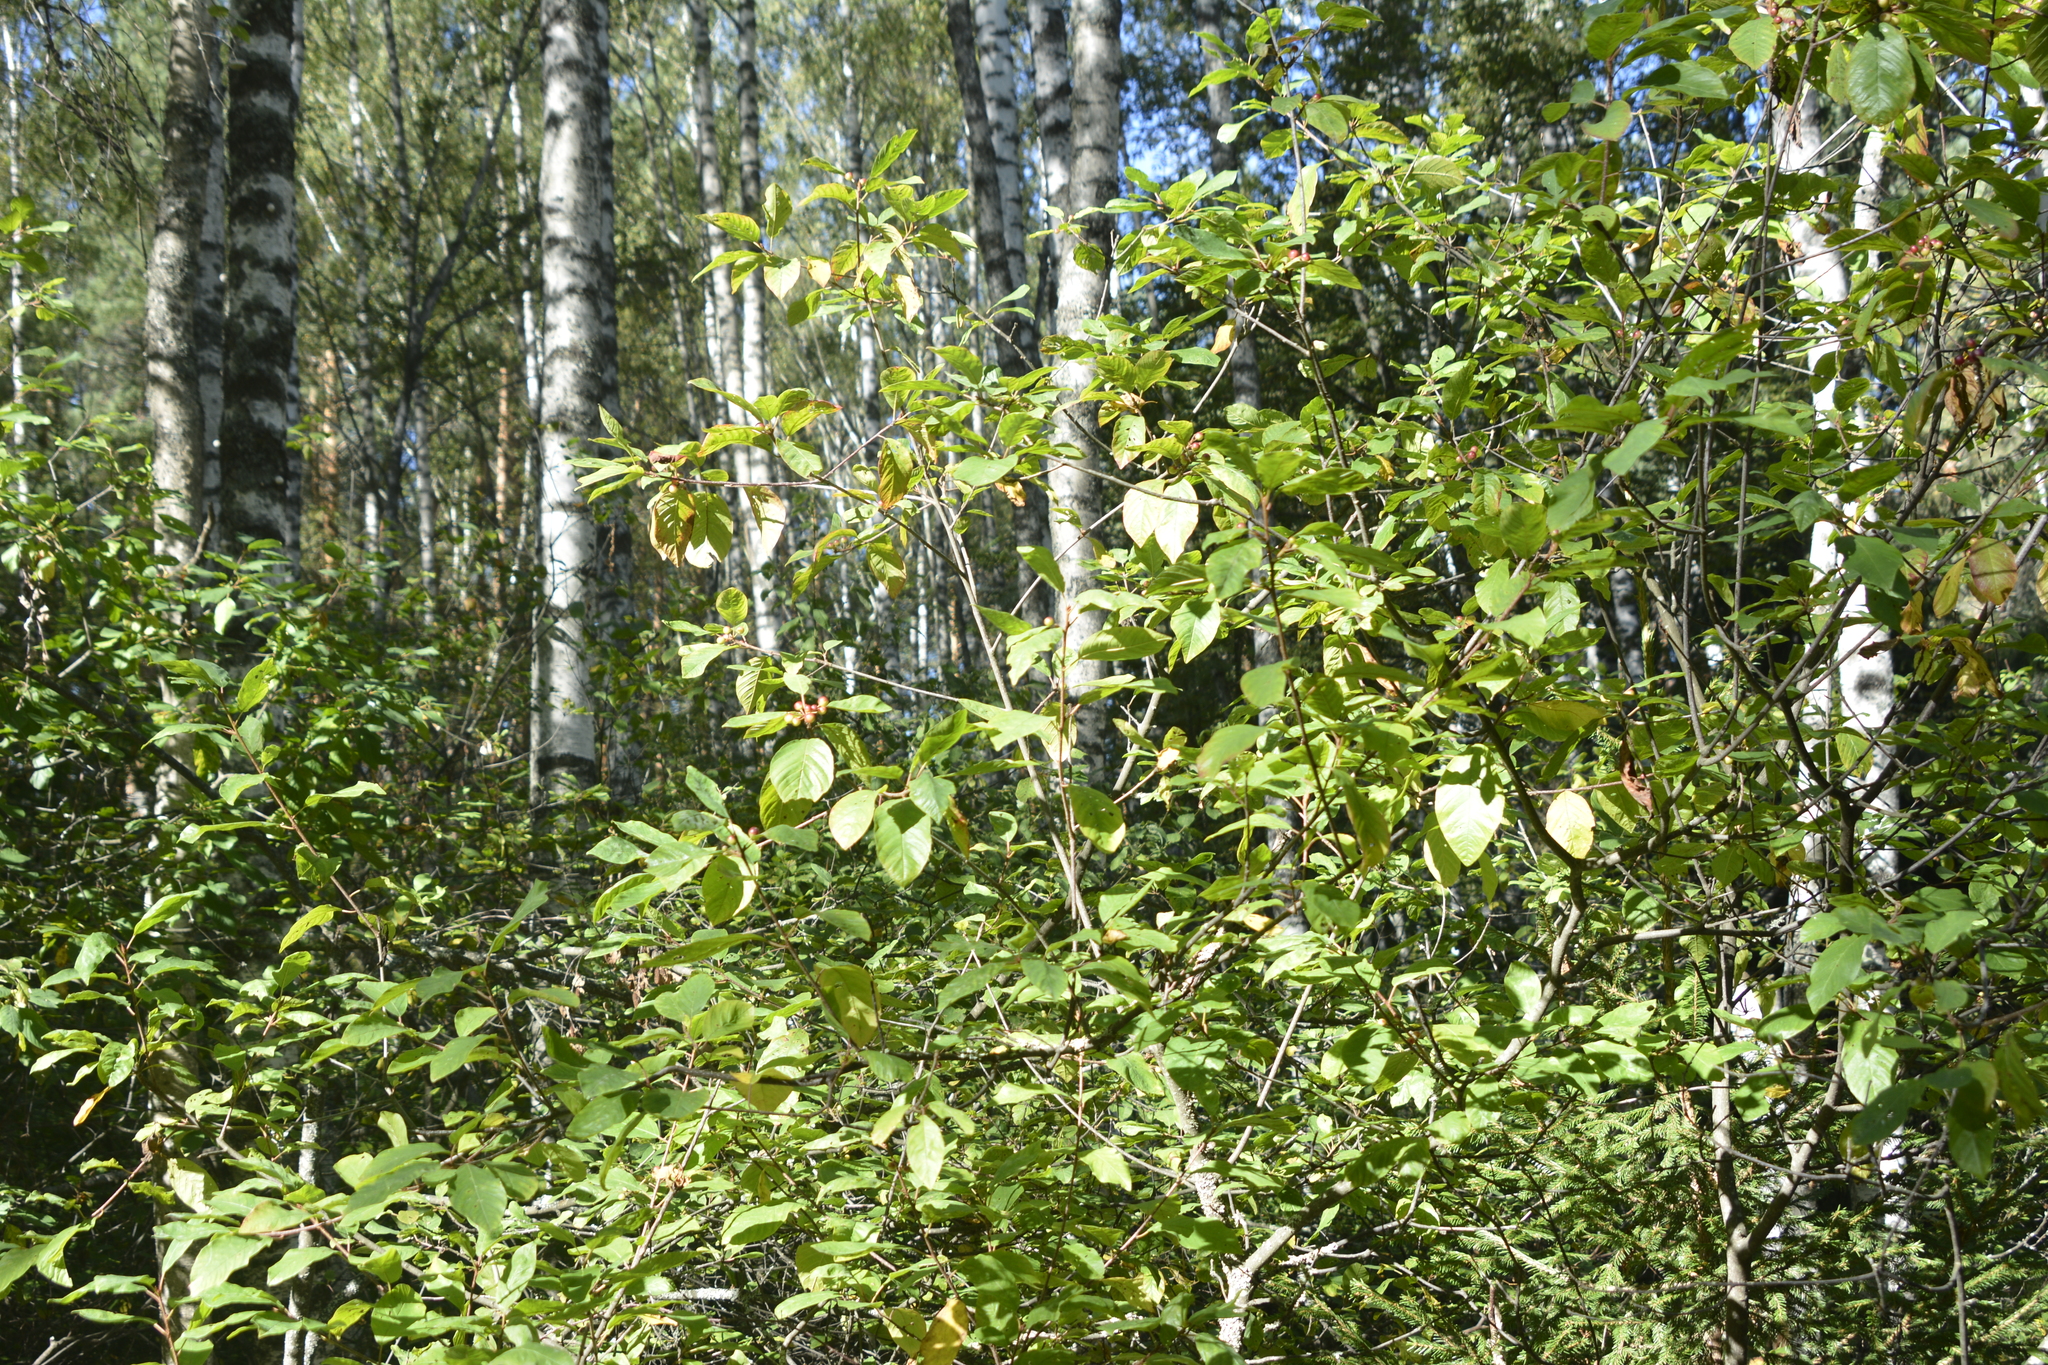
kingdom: Plantae
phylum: Tracheophyta
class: Magnoliopsida
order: Rosales
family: Rhamnaceae
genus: Frangula
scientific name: Frangula alnus
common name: Alder buckthorn
